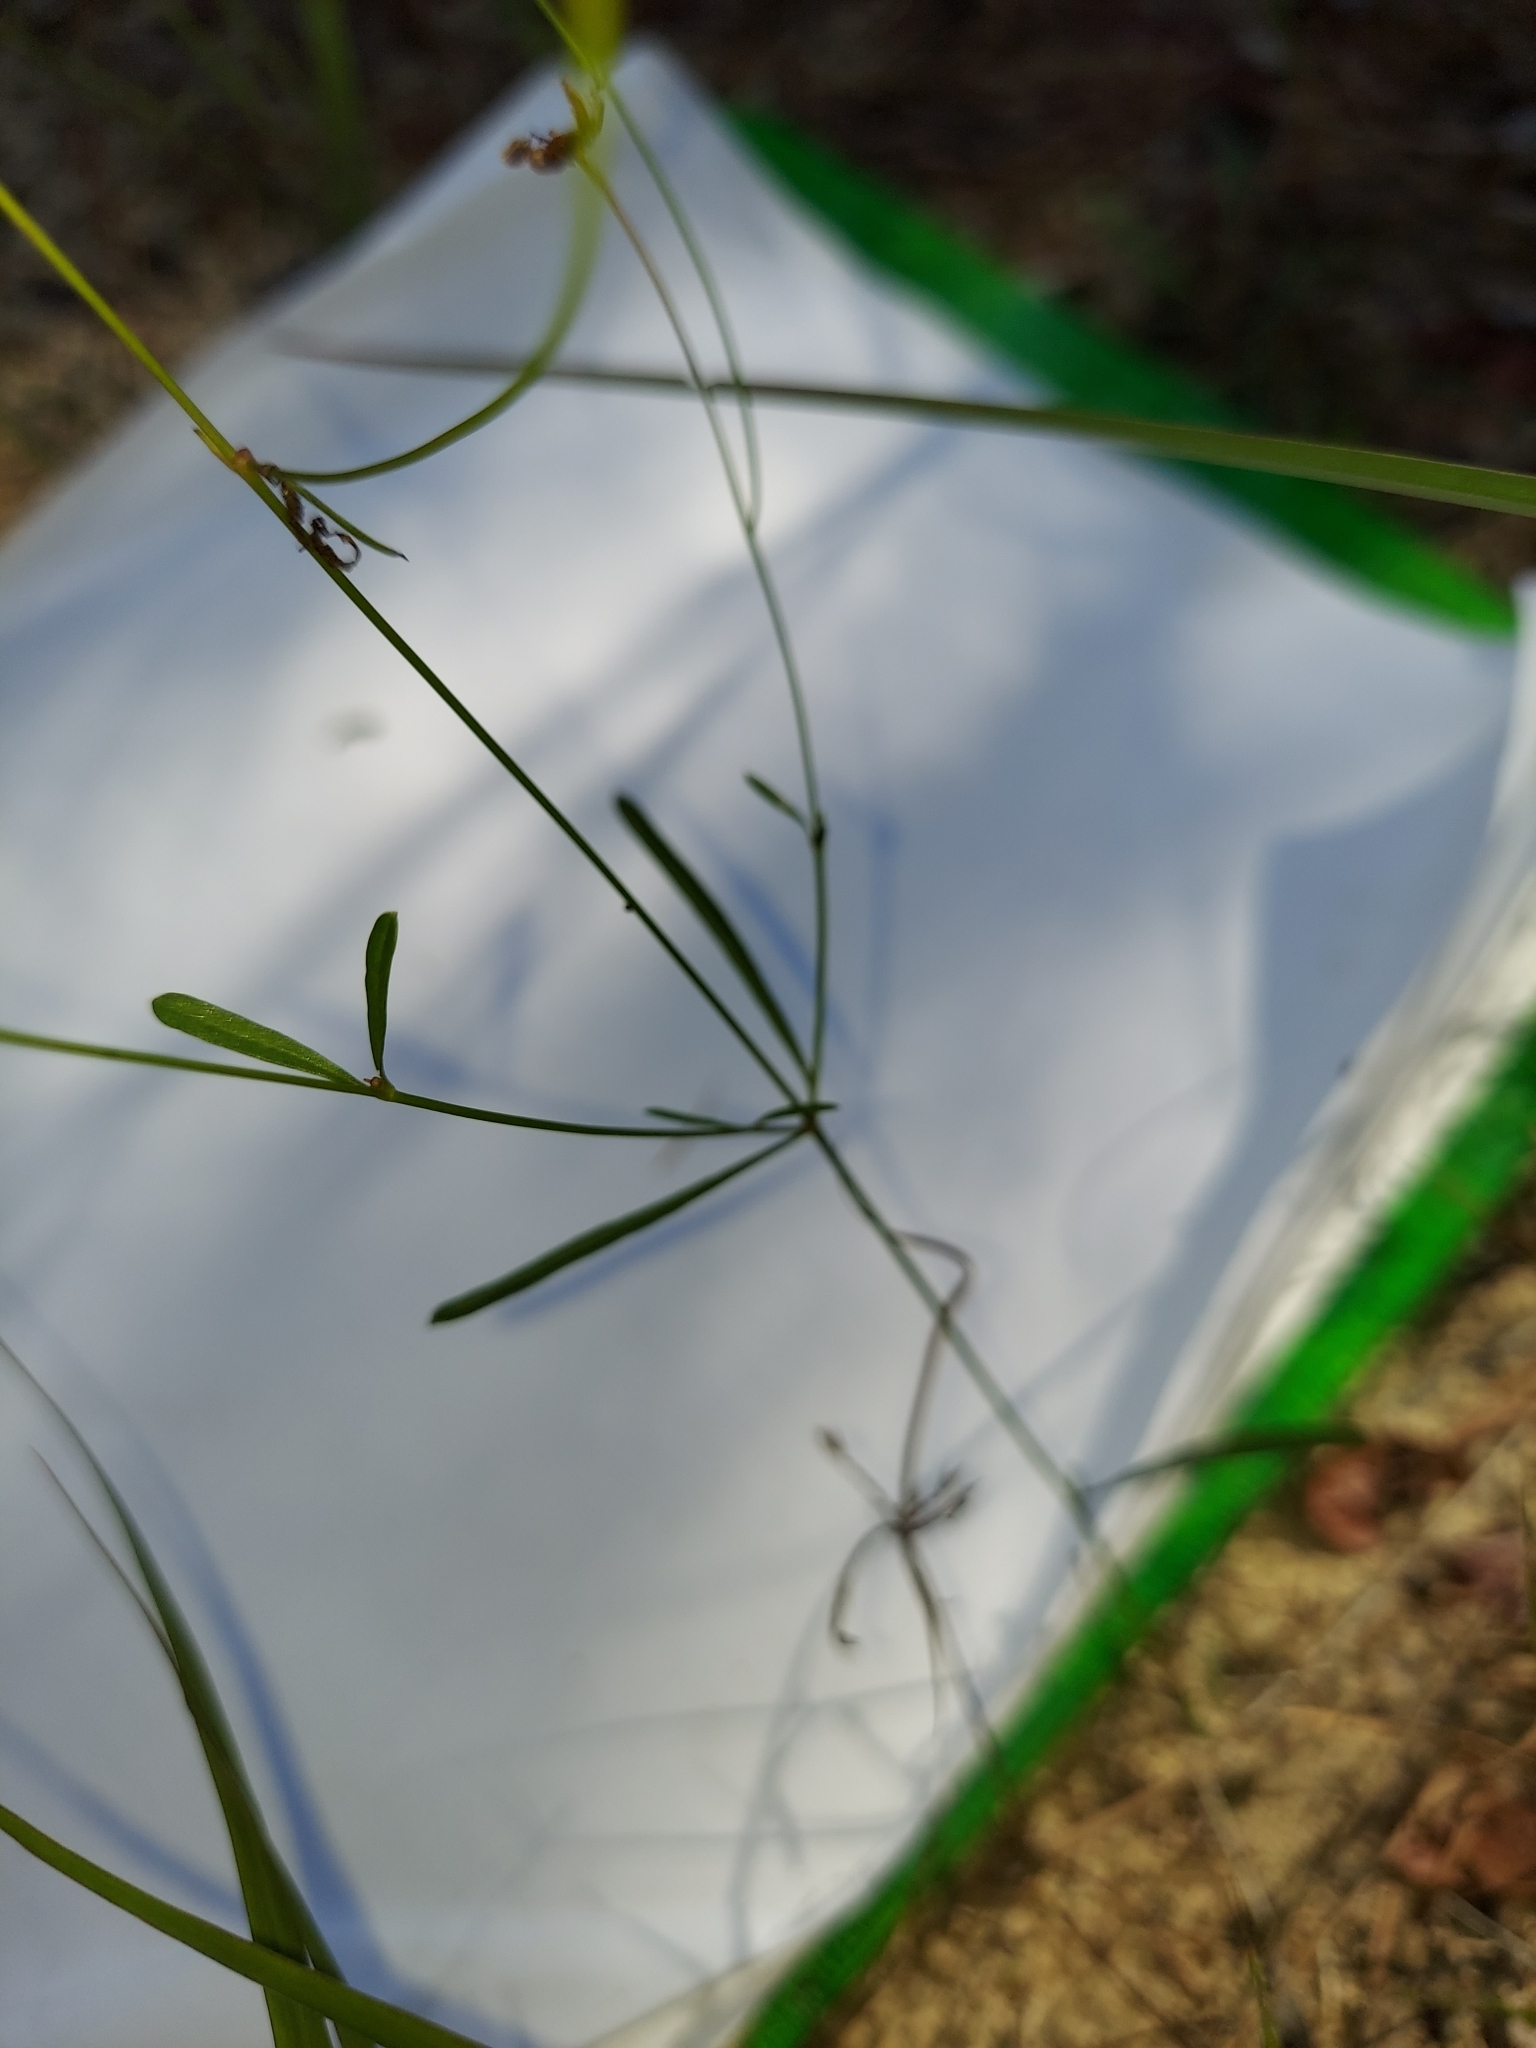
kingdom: Plantae
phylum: Tracheophyta
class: Magnoliopsida
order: Asterales
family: Asteraceae
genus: Coreopsis
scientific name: Coreopsis leavenworthii
